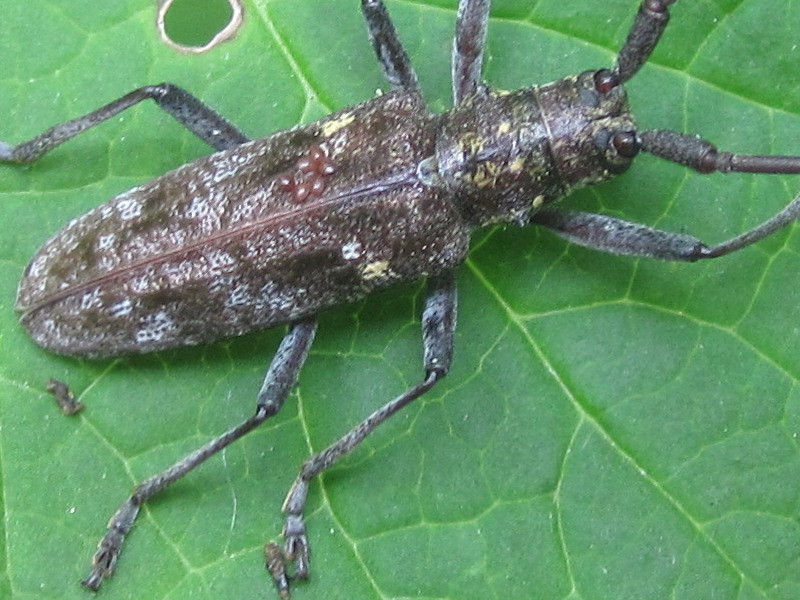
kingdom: Animalia
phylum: Arthropoda
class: Insecta
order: Coleoptera
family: Cerambycidae
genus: Monochamus
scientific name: Monochamus carolinensis
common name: Carolina pine sawyer
